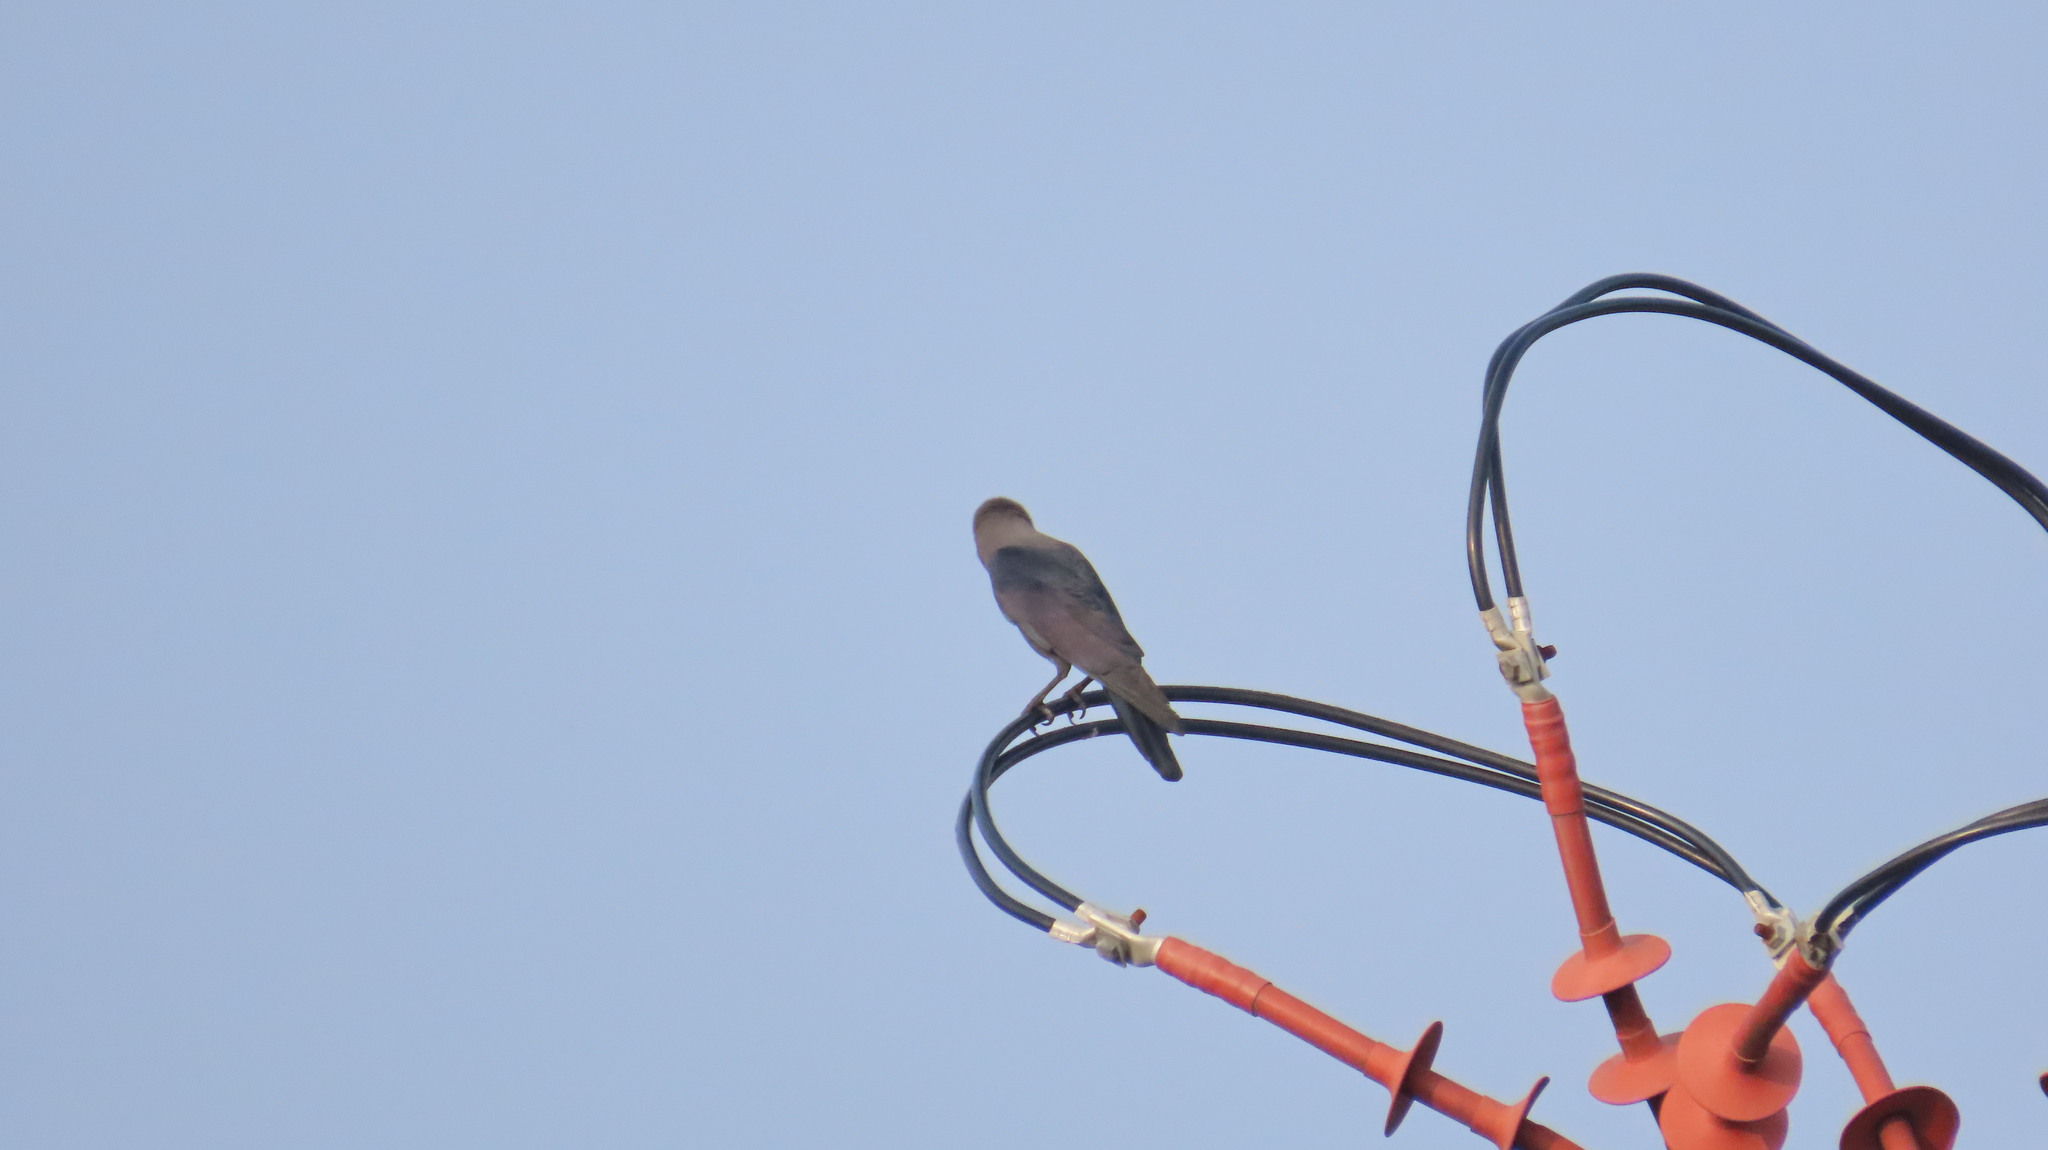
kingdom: Animalia
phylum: Chordata
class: Aves
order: Passeriformes
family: Corvidae
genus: Corvus
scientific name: Corvus splendens
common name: House crow
